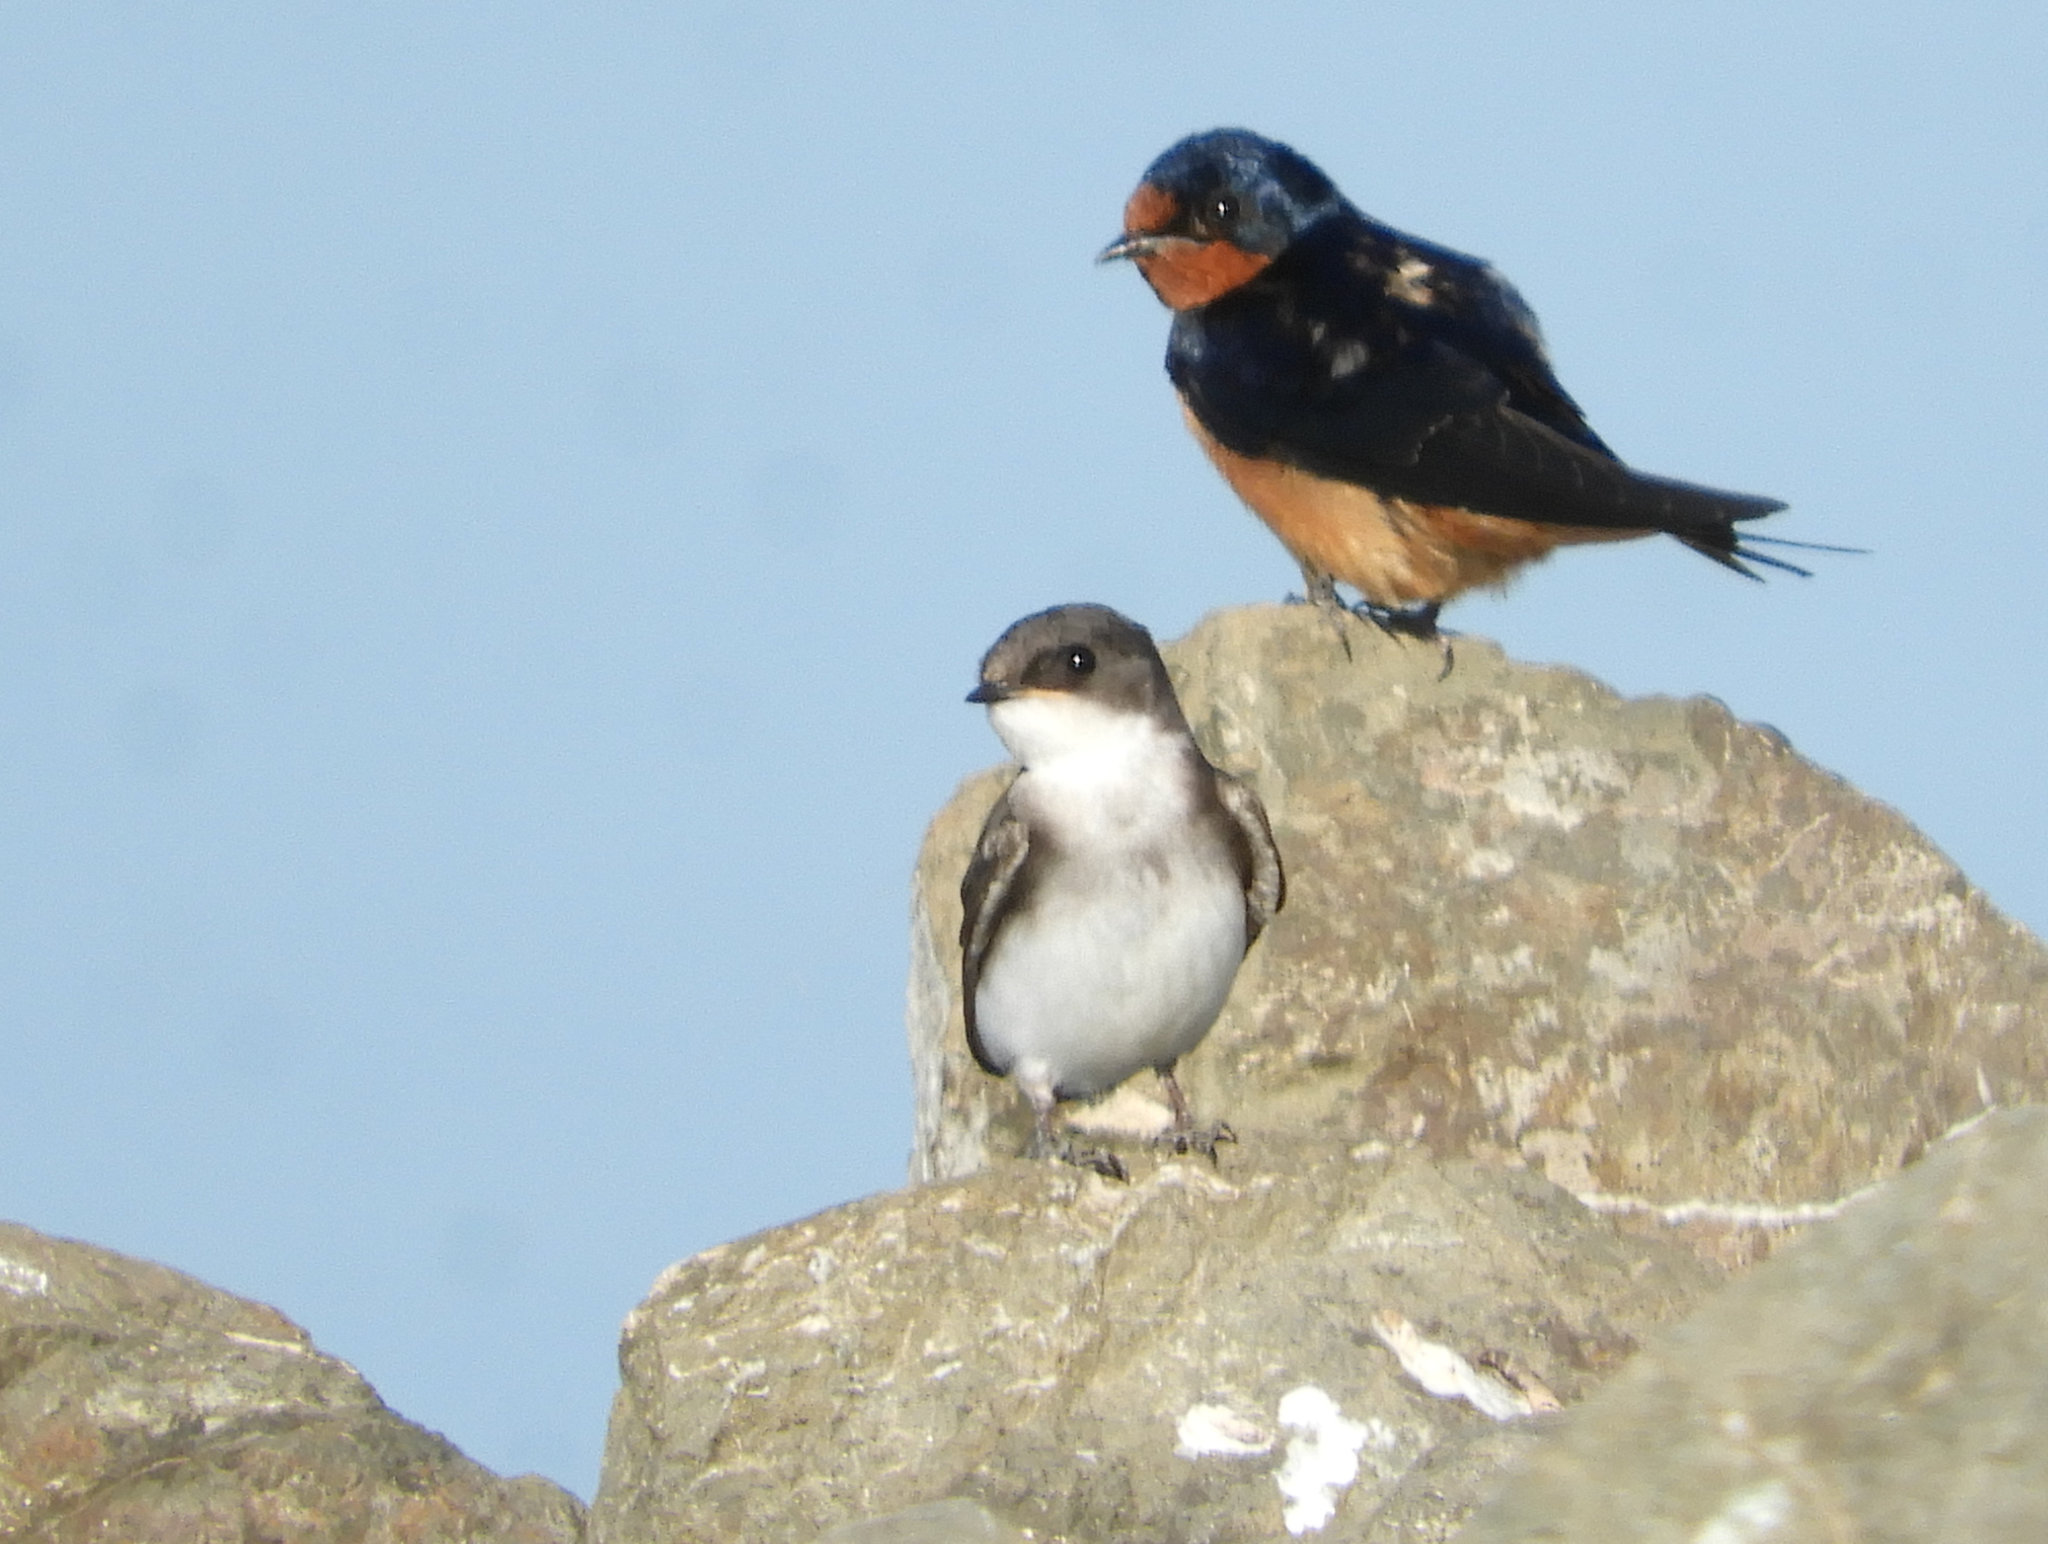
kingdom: Animalia
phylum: Chordata
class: Aves
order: Passeriformes
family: Hirundinidae
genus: Tachycineta
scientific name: Tachycineta bicolor
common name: Tree swallow
